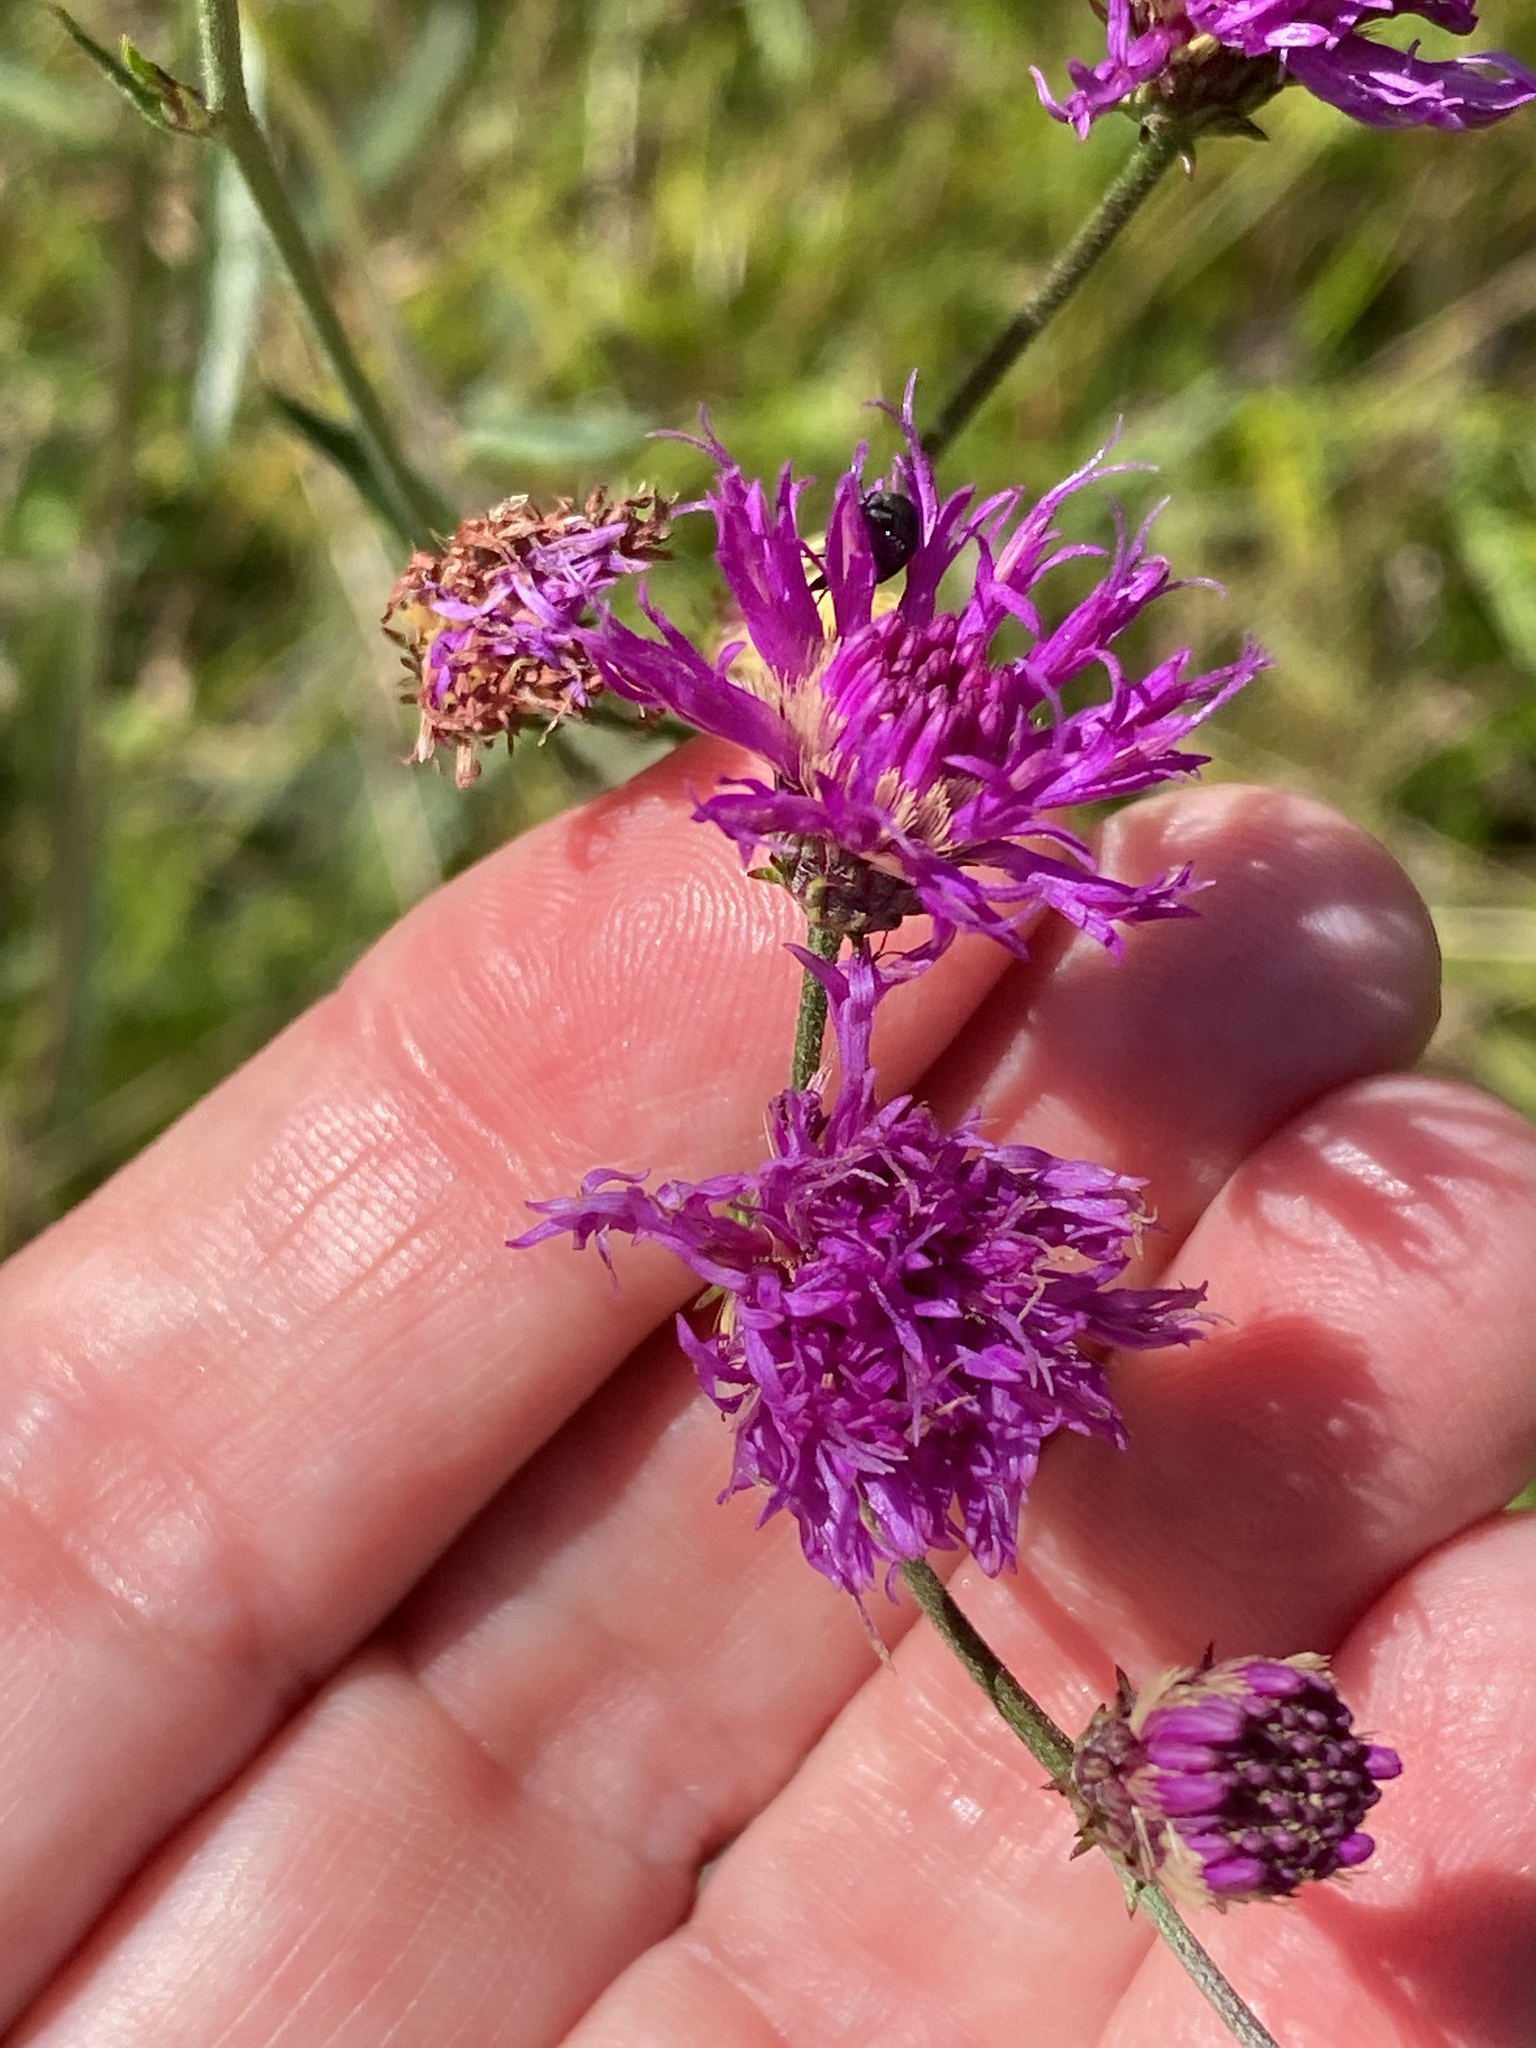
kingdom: Plantae
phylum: Tracheophyta
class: Magnoliopsida
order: Asterales
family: Asteraceae
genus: Vernonia
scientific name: Vernonia acaulis
